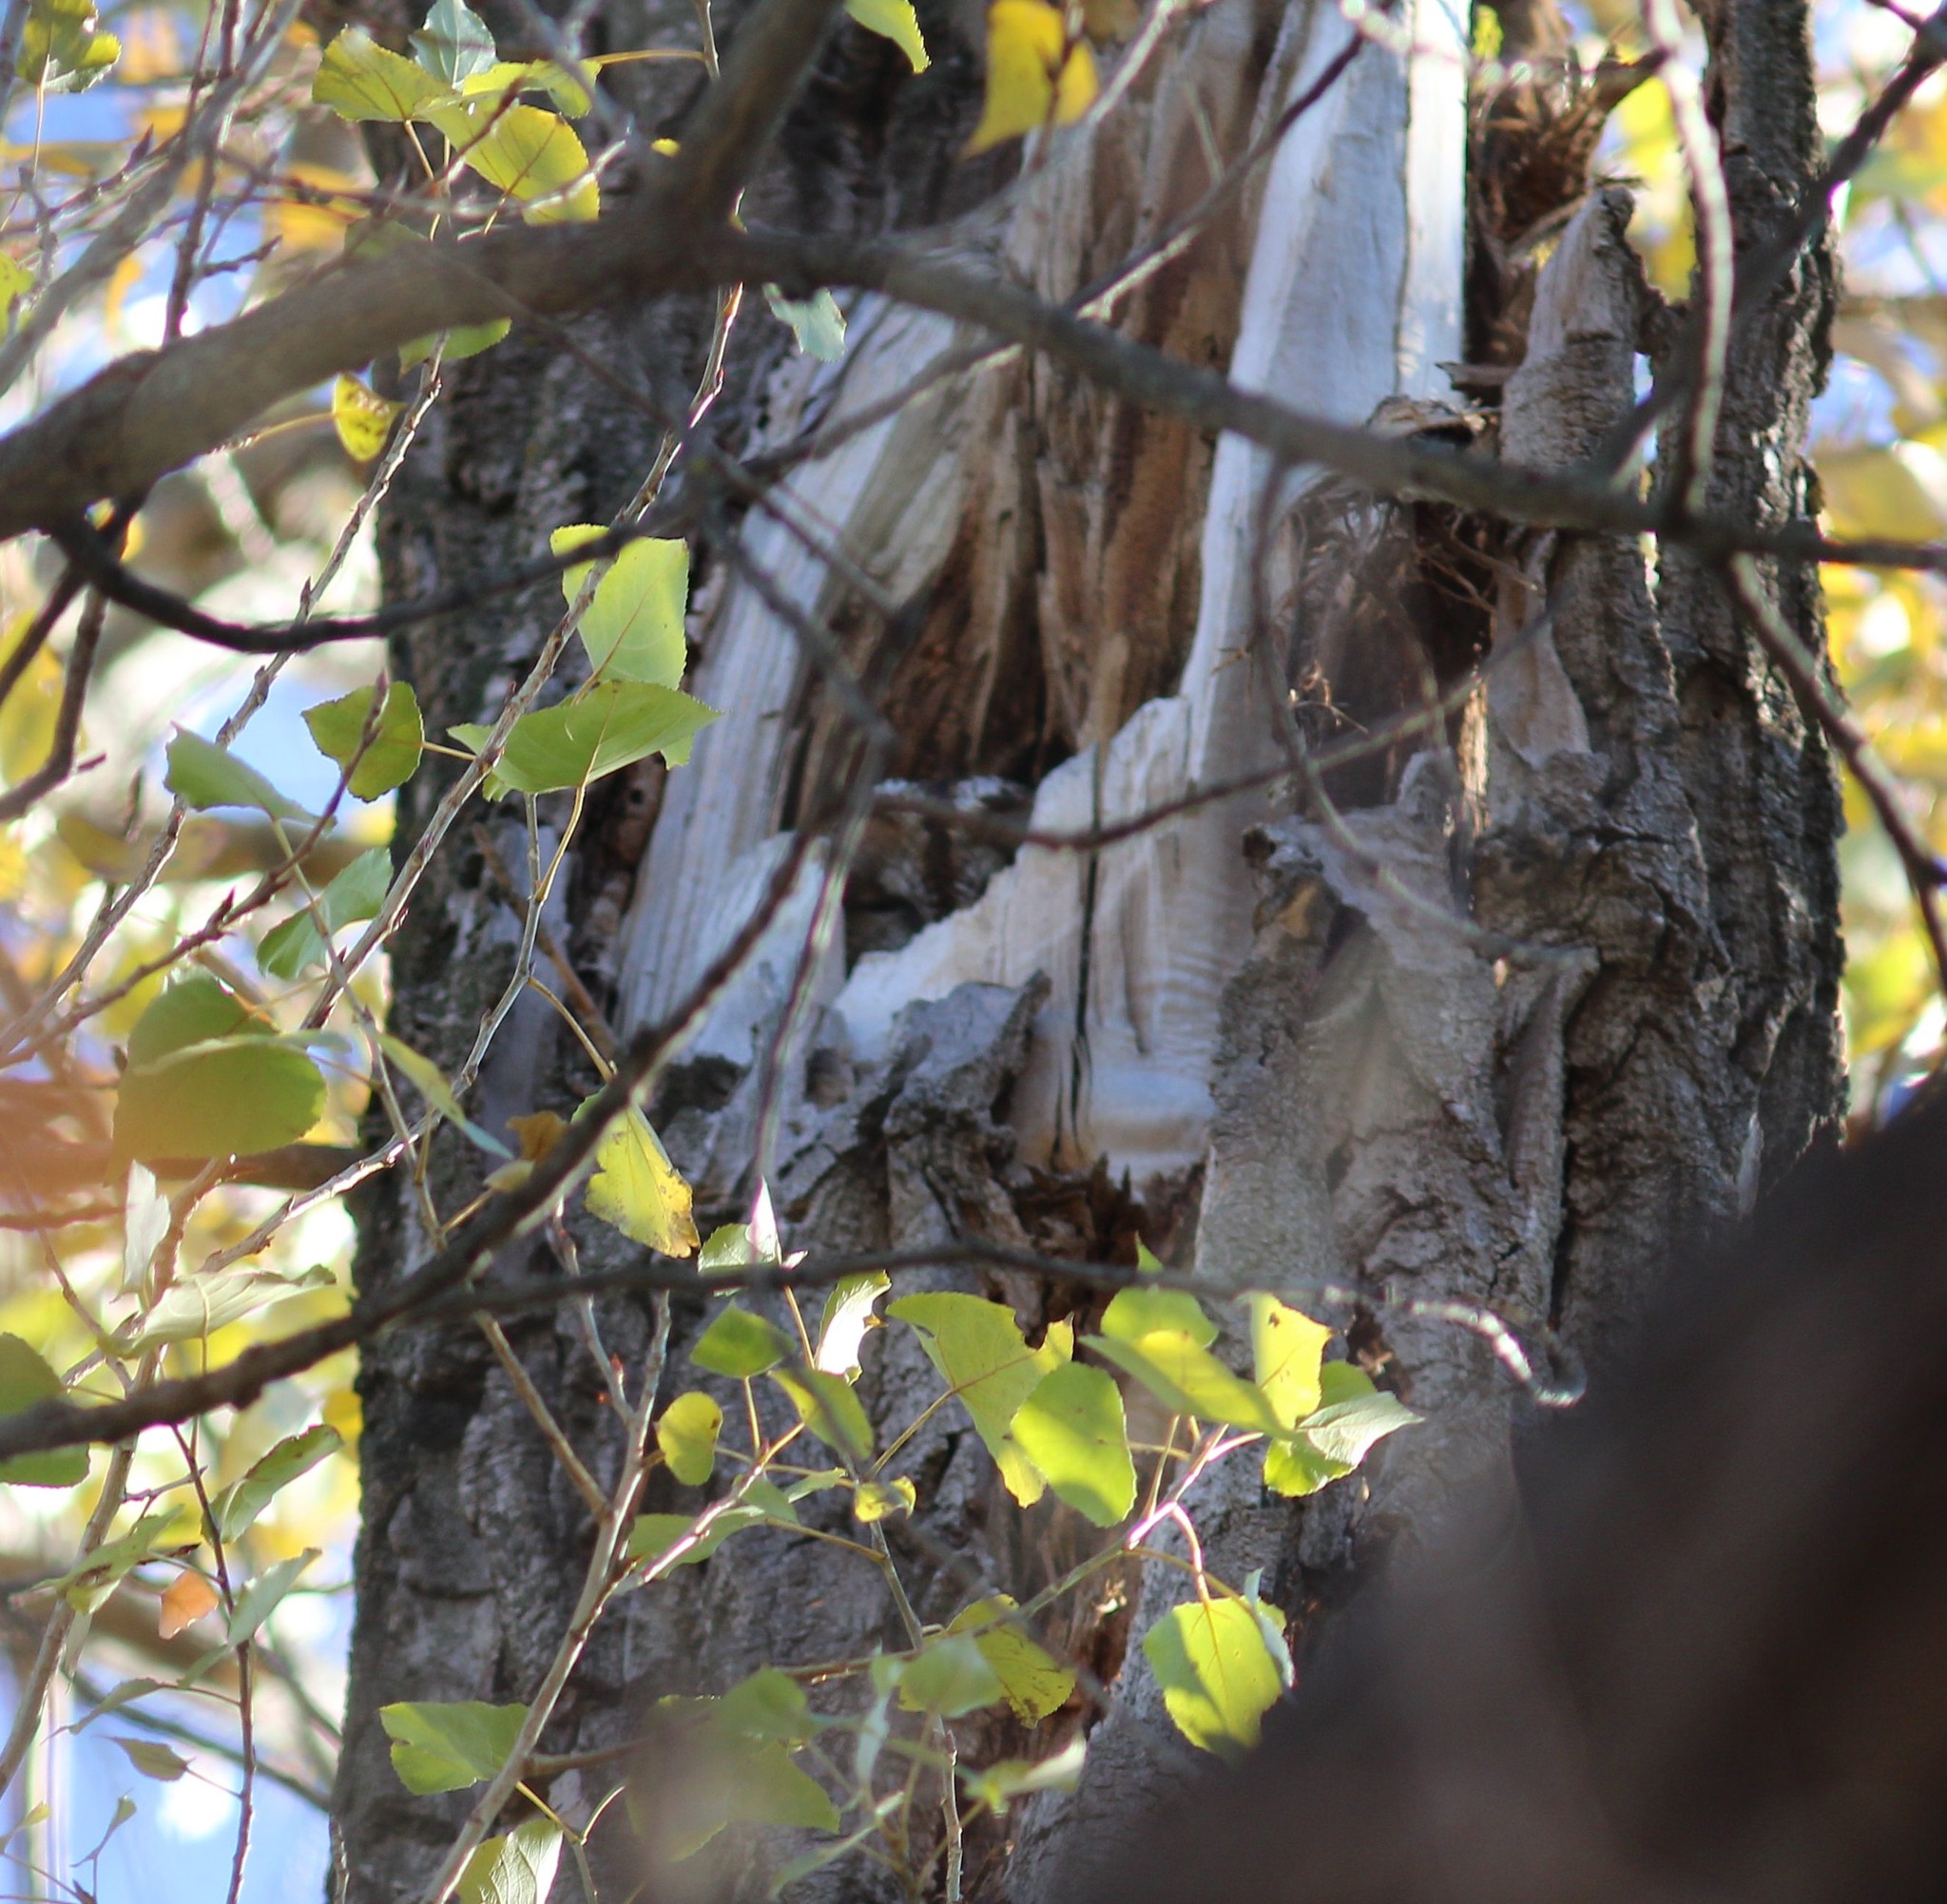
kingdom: Animalia
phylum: Chordata
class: Aves
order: Strigiformes
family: Strigidae
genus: Strix
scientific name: Strix aluco
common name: Tawny owl
